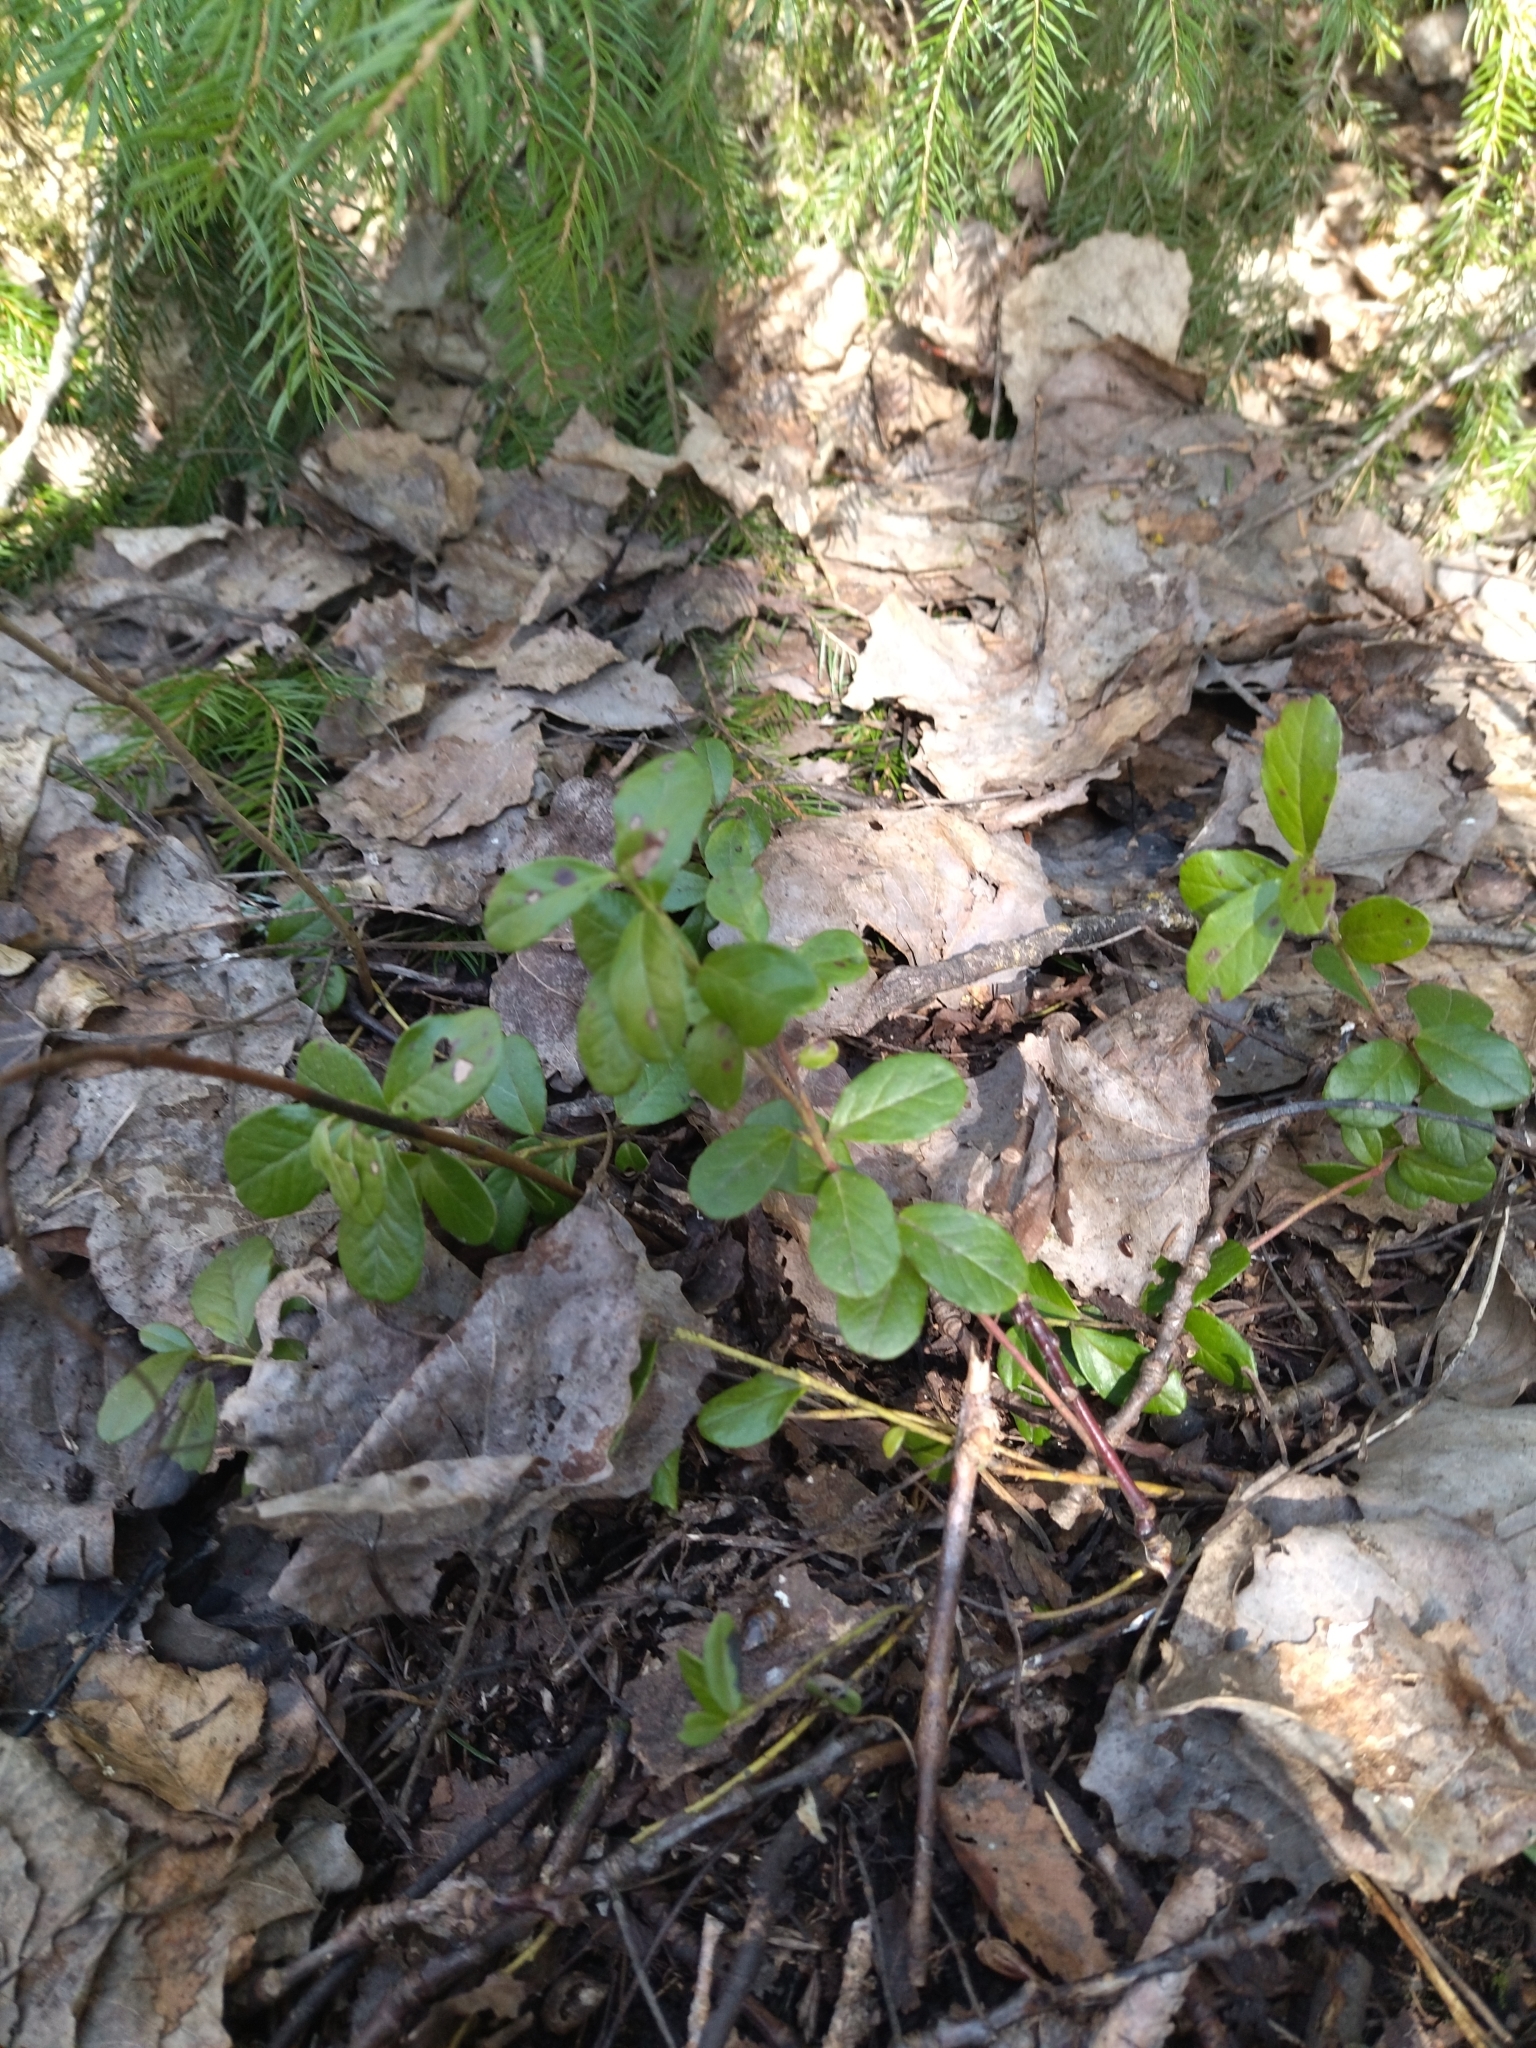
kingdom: Plantae
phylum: Tracheophyta
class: Magnoliopsida
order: Ericales
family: Ericaceae
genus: Vaccinium
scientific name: Vaccinium vitis-idaea
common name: Cowberry
